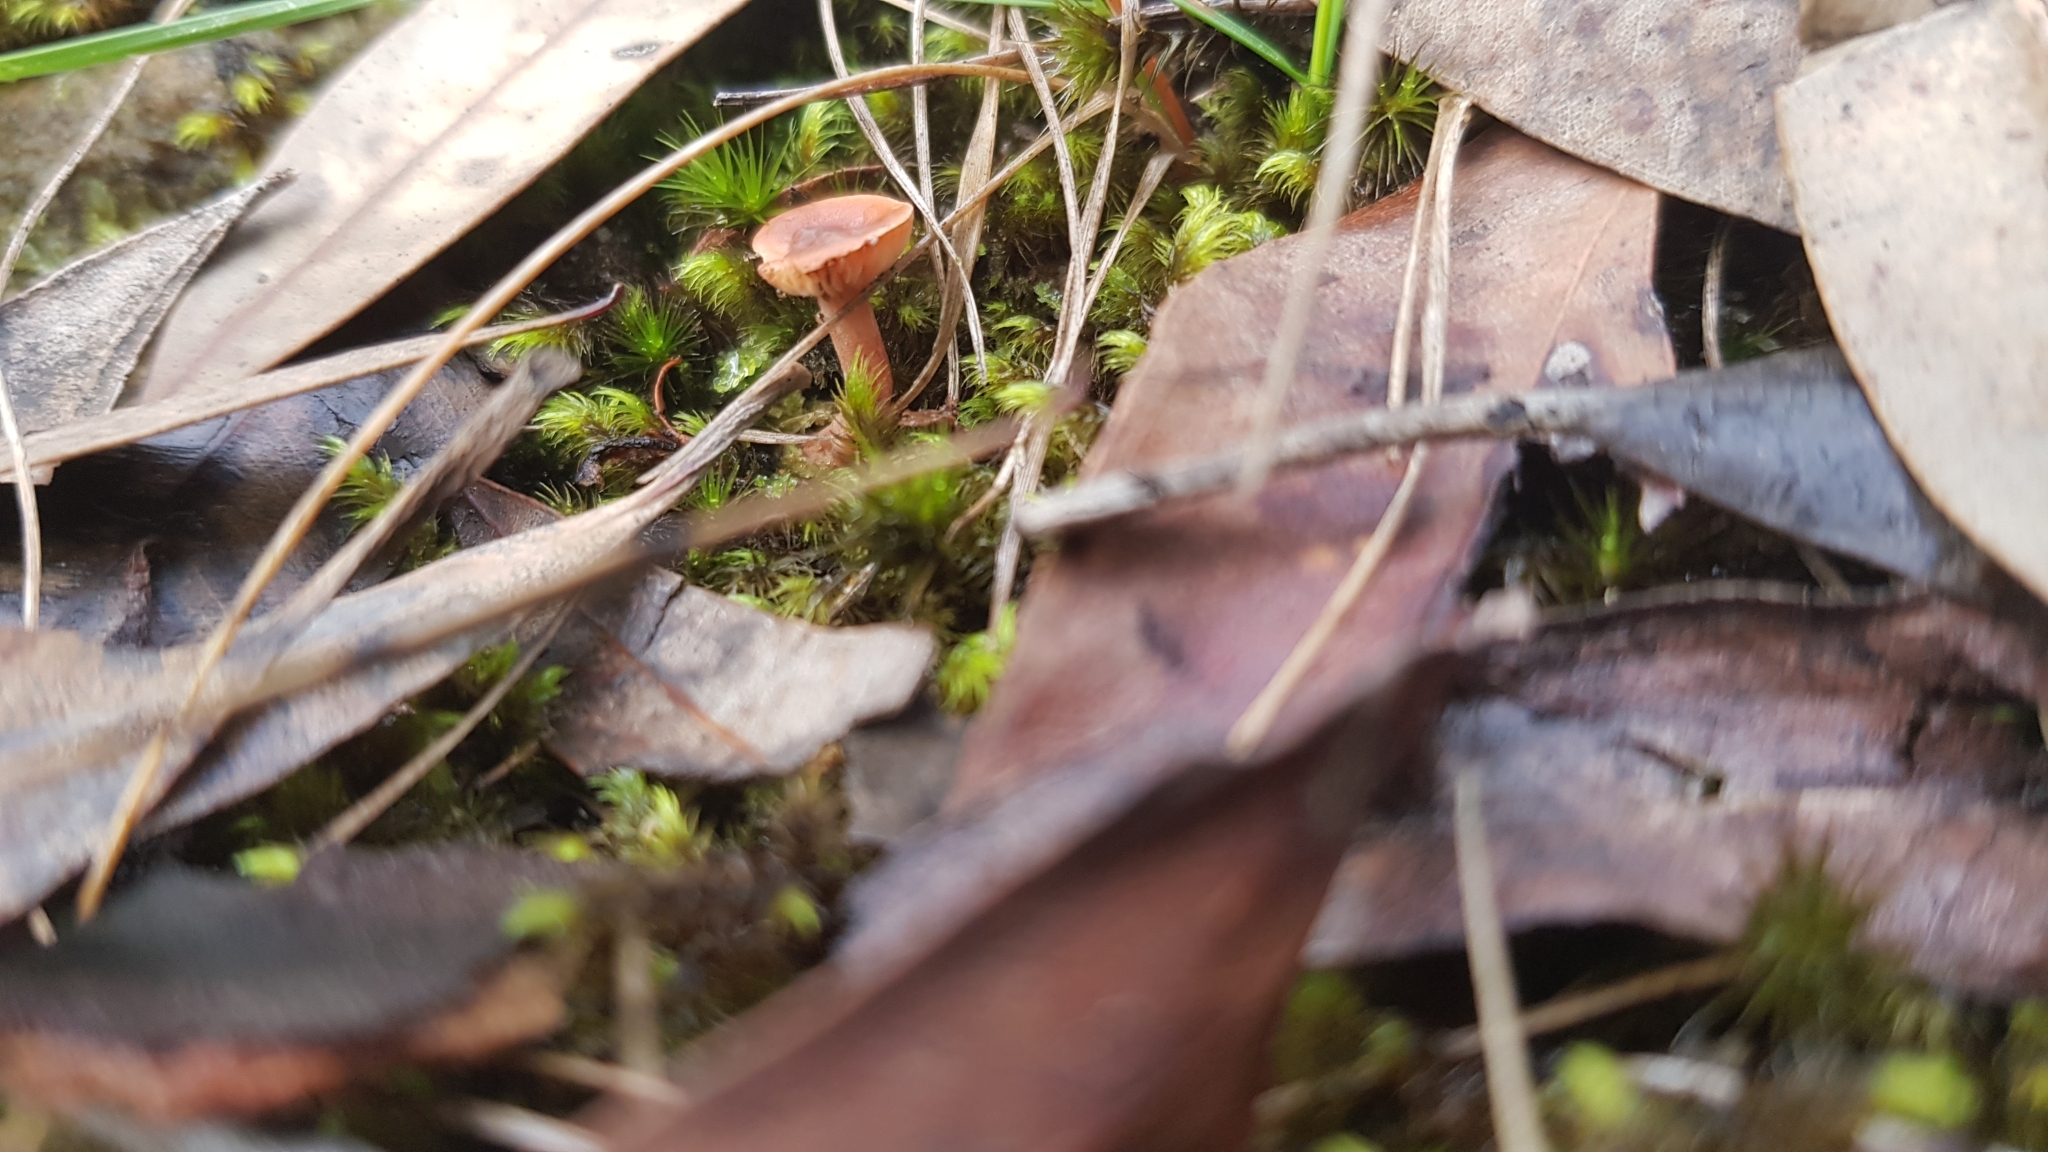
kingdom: Fungi
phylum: Basidiomycota
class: Agaricomycetes
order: Russulales
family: Russulaceae
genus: Lactarius
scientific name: Lactarius eucalypti
